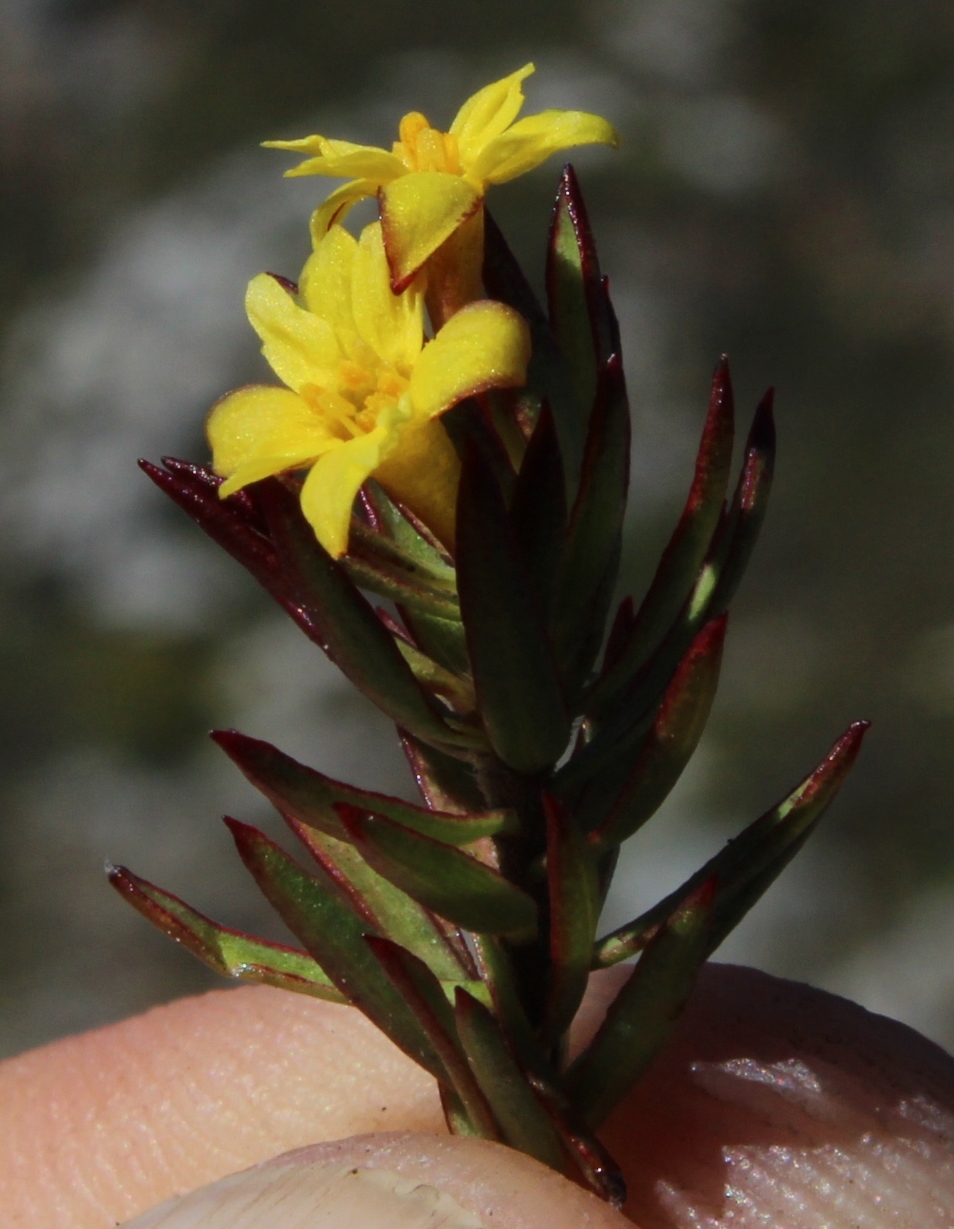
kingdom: Plantae
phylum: Tracheophyta
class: Magnoliopsida
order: Malvales
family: Thymelaeaceae
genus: Gnidia
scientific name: Gnidia juniperifolia
